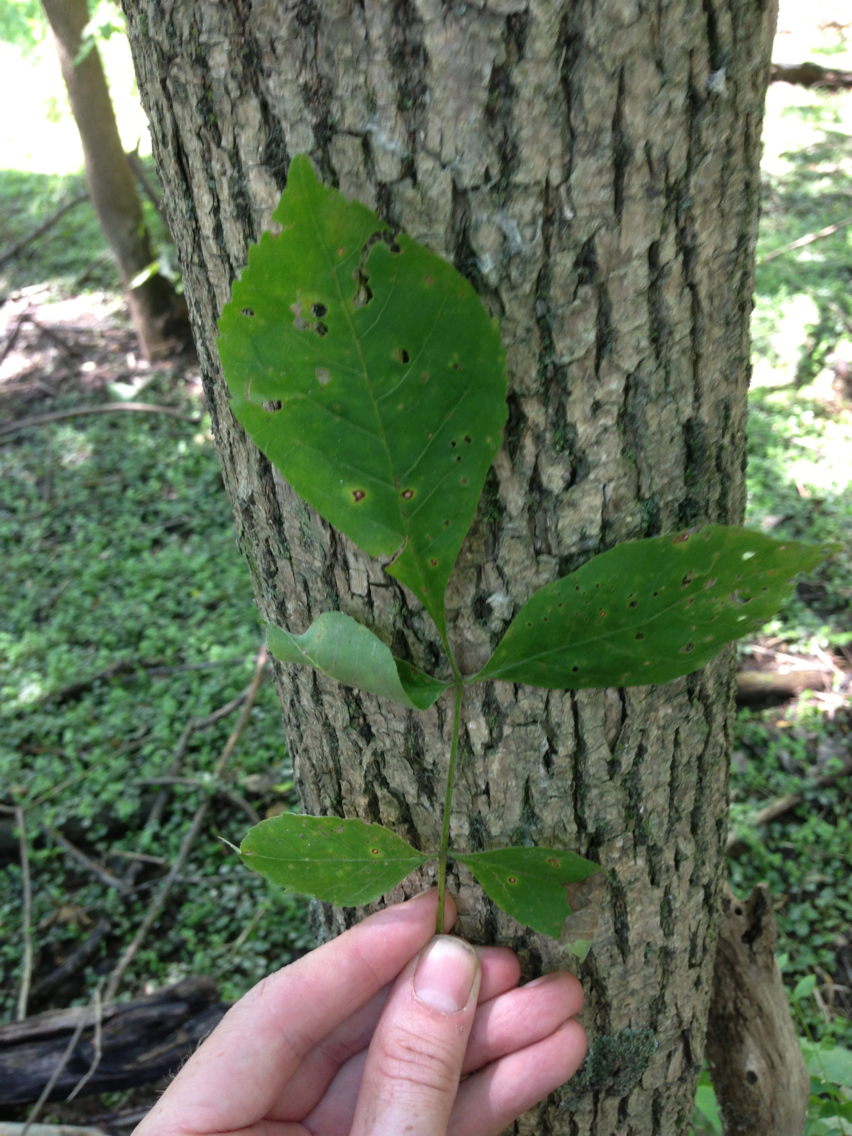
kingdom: Plantae
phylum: Tracheophyta
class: Magnoliopsida
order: Lamiales
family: Oleaceae
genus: Fraxinus
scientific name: Fraxinus pennsylvanica
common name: Green ash
